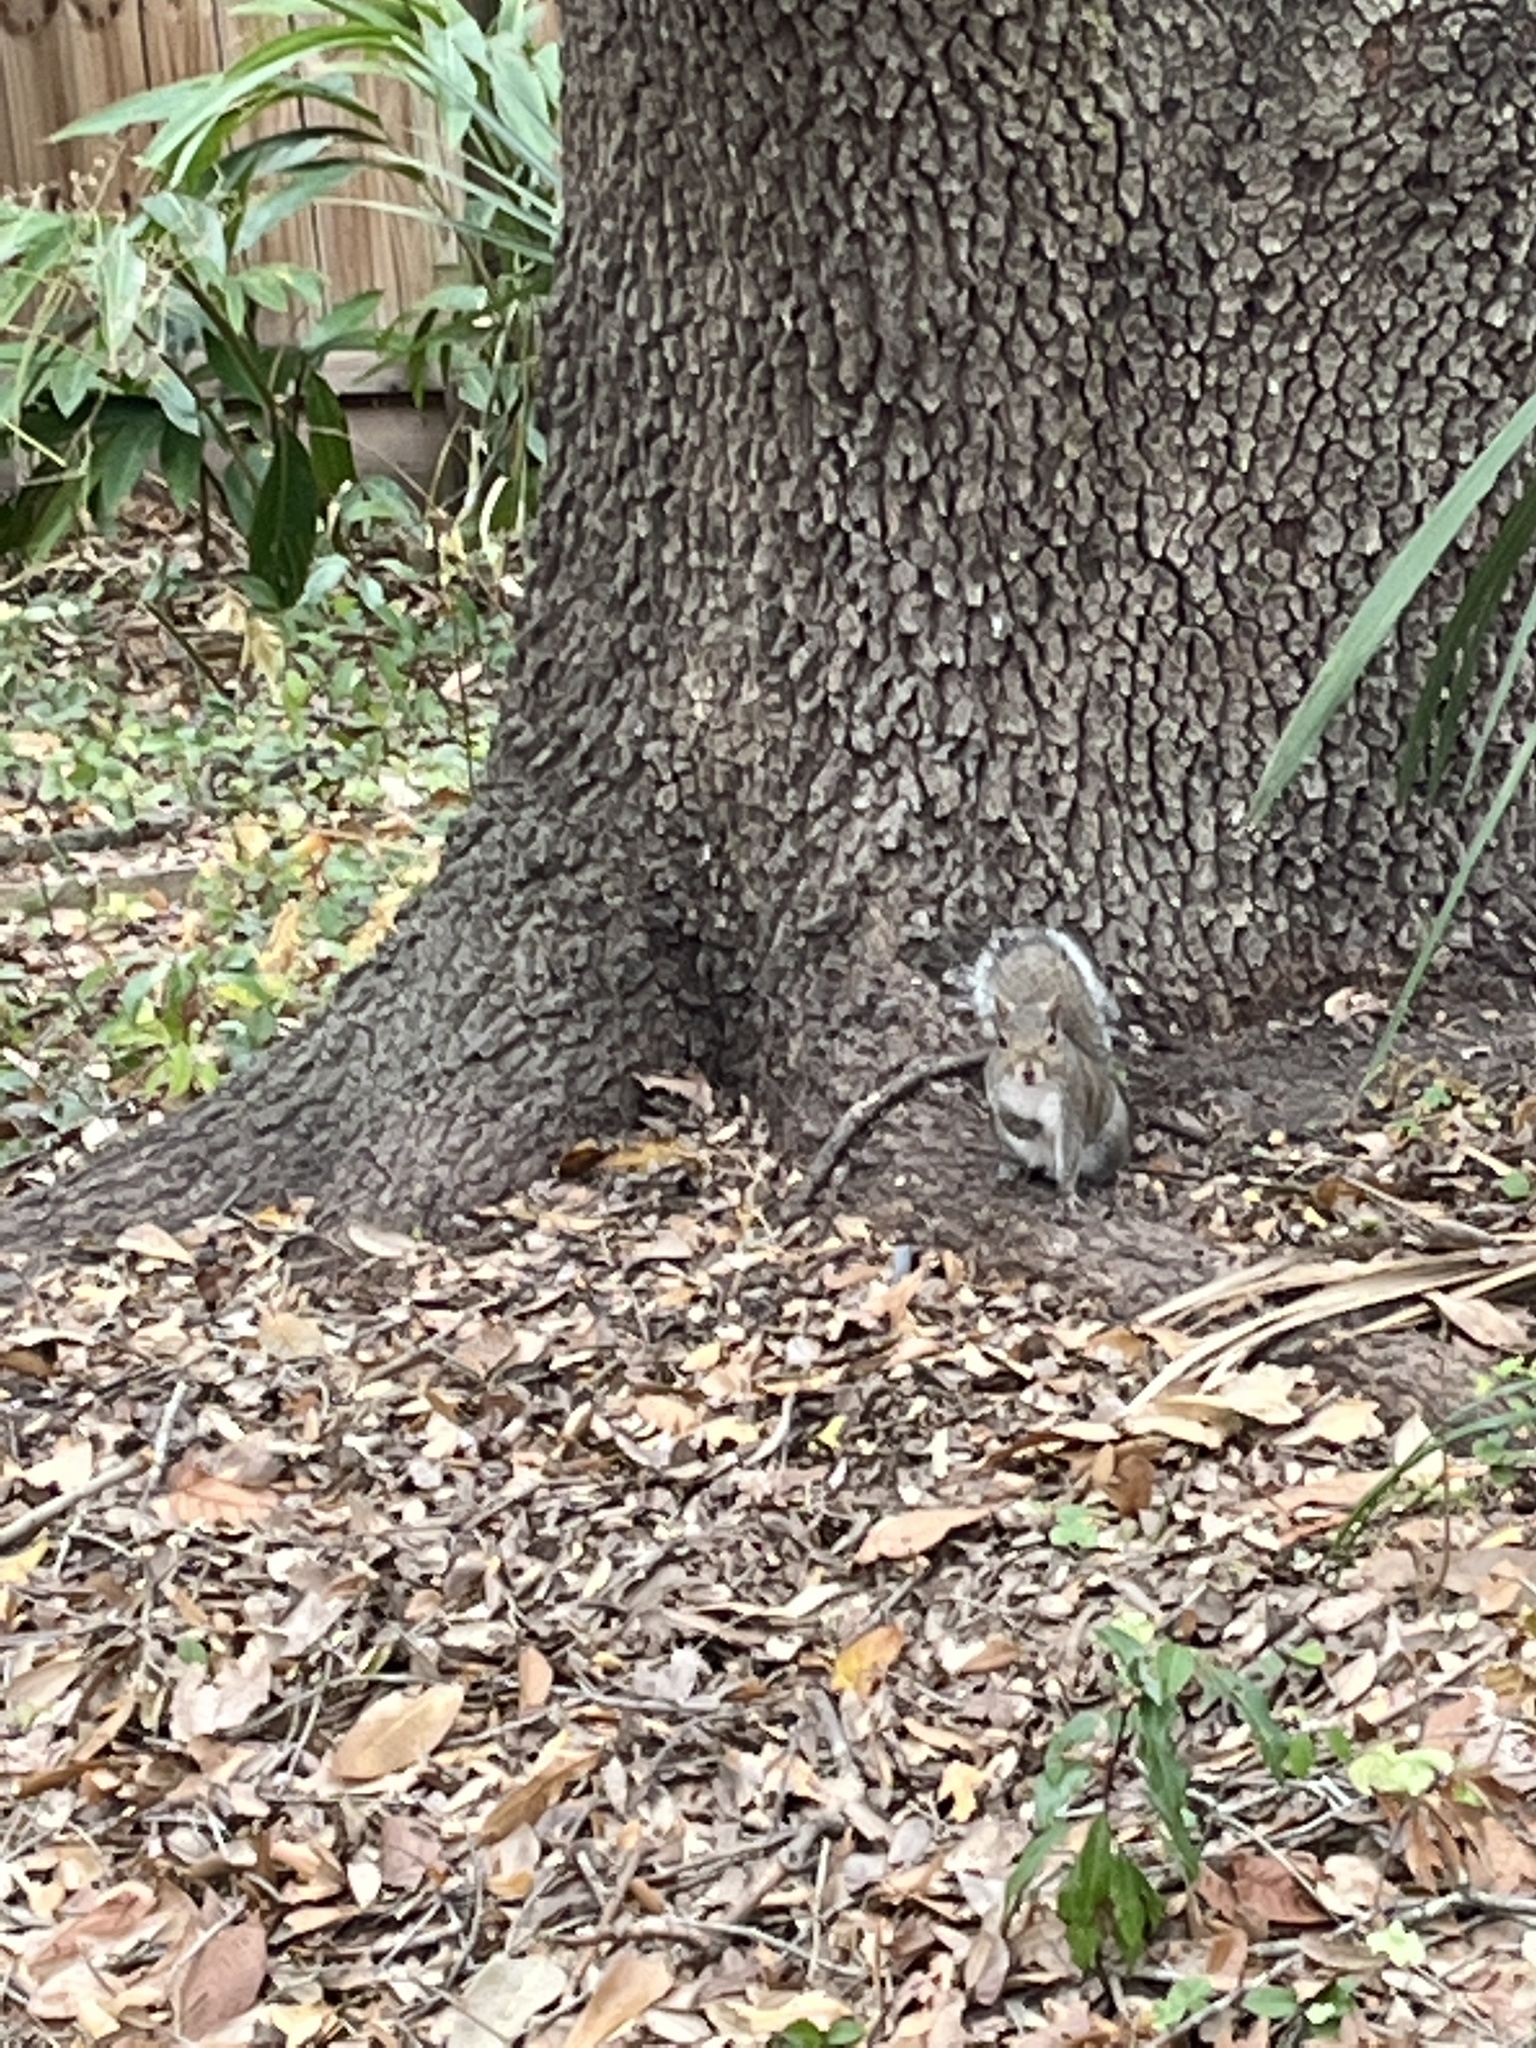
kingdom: Animalia
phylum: Chordata
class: Mammalia
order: Rodentia
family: Sciuridae
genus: Sciurus
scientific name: Sciurus carolinensis
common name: Eastern gray squirrel
